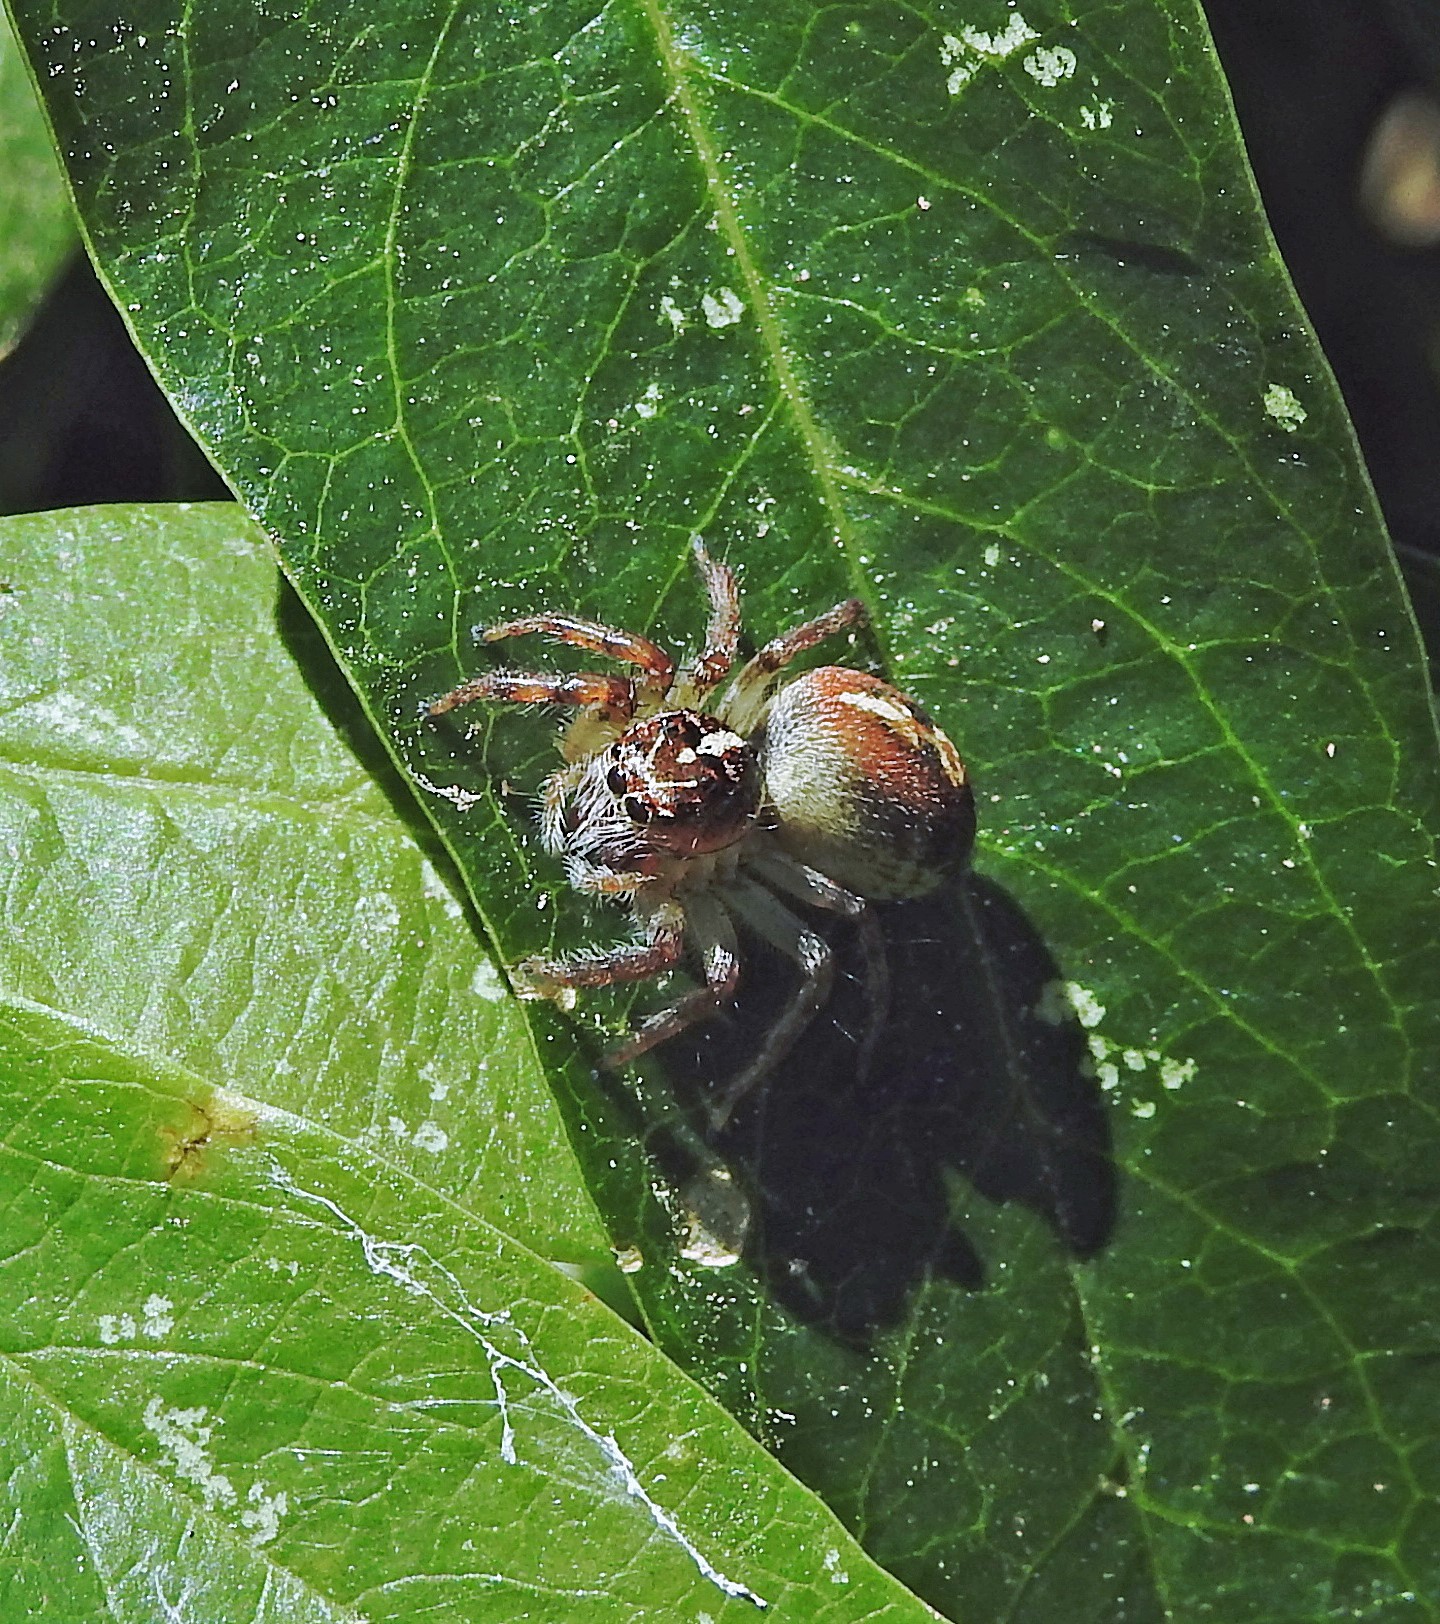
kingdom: Animalia
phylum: Arthropoda
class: Arachnida
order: Araneae
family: Salticidae
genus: Frigga
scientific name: Frigga quintensis
